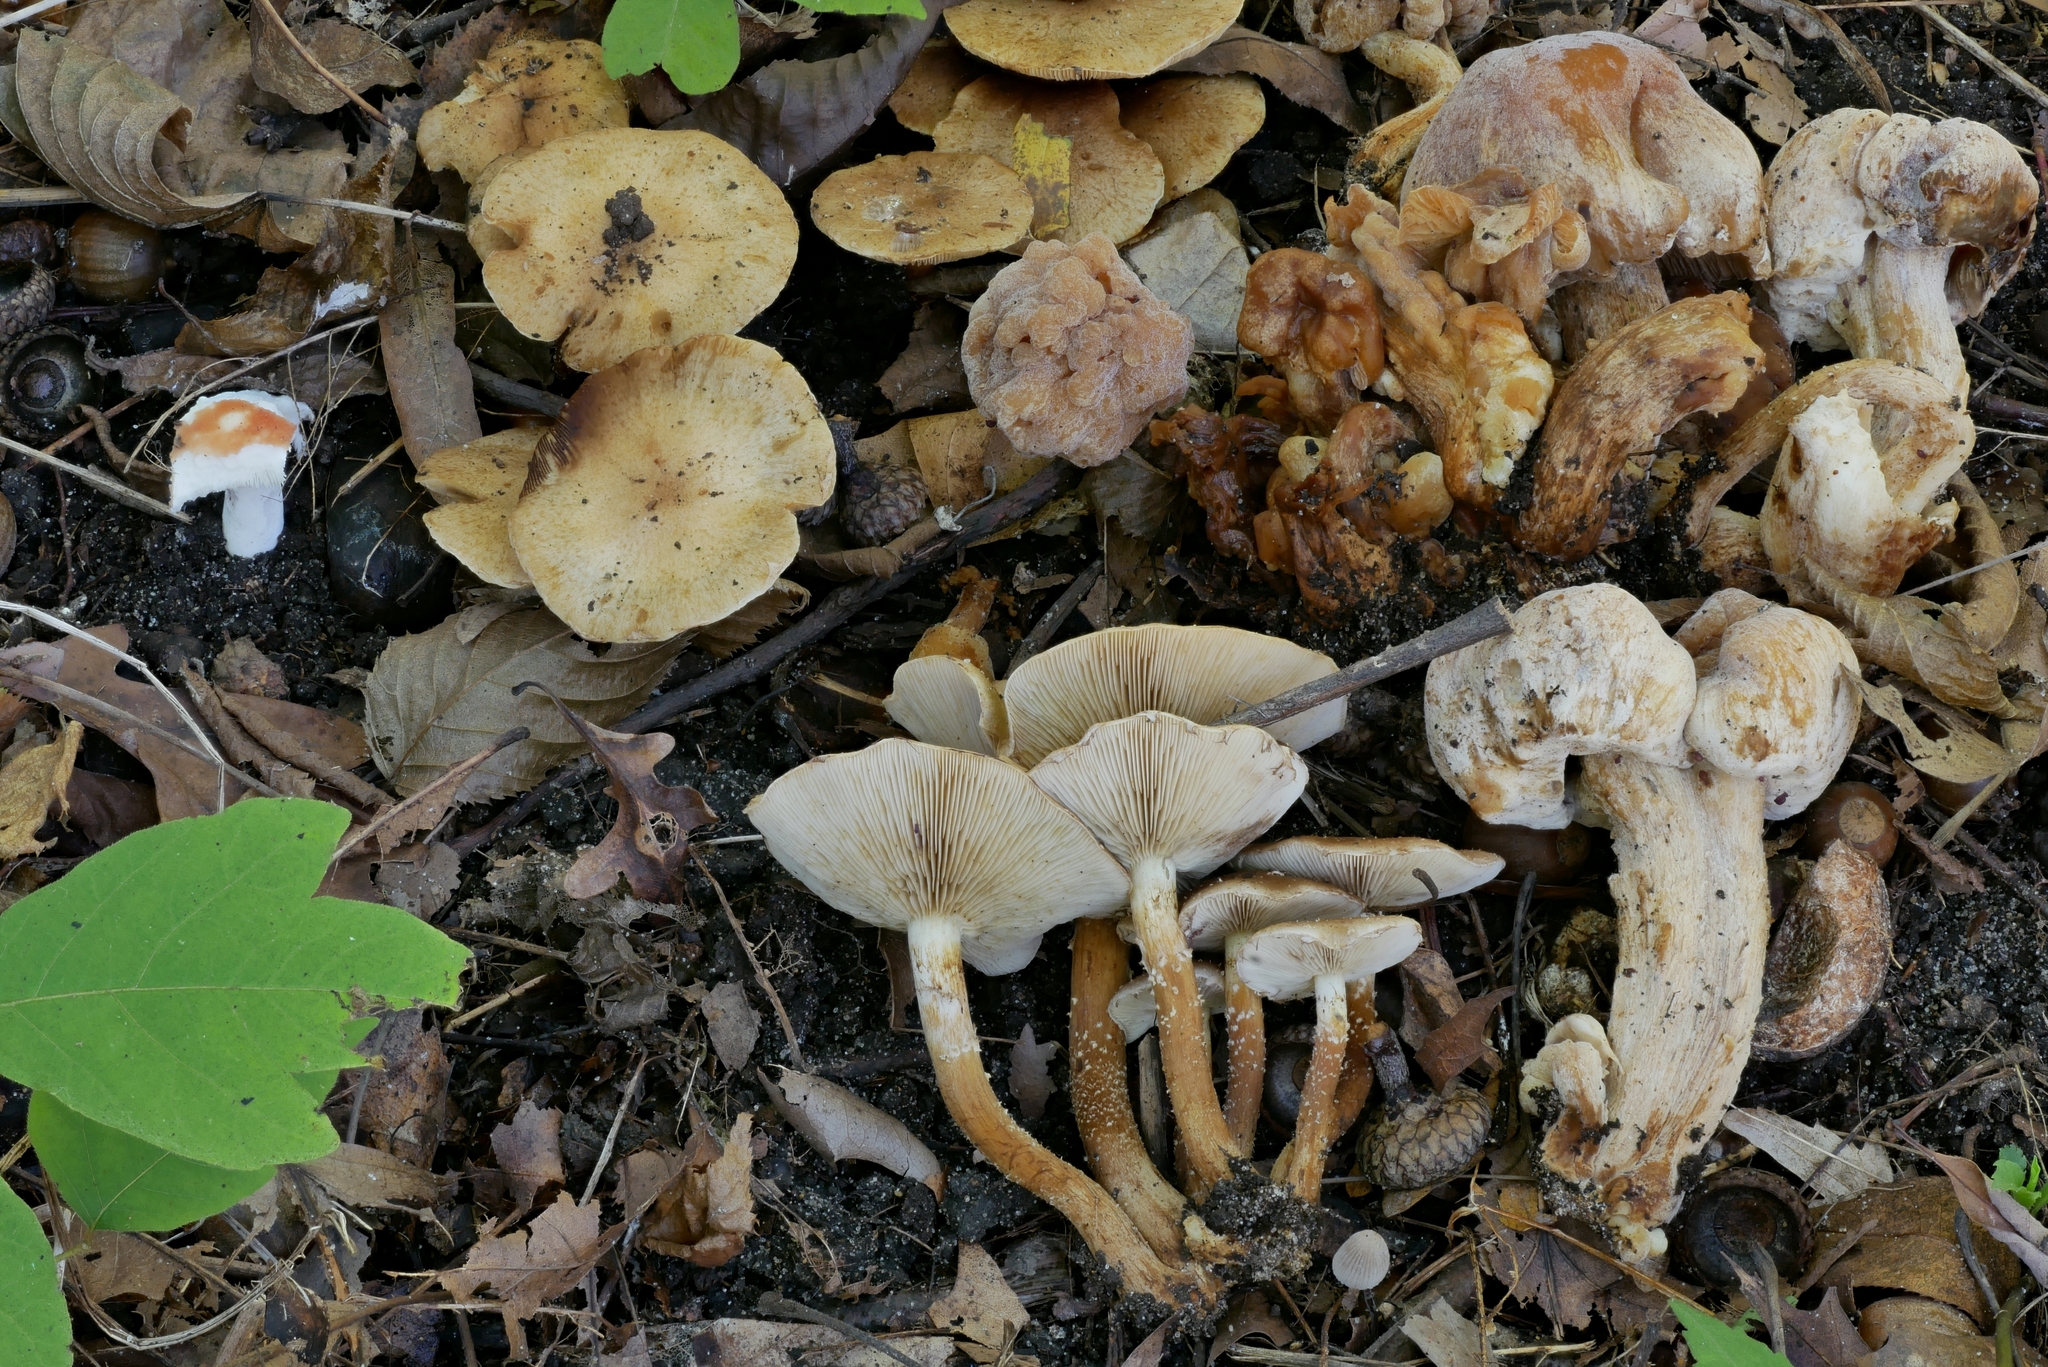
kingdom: Fungi
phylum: Basidiomycota
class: Agaricomycetes
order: Agaricales
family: Inocybaceae
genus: Inocybe
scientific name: Inocybe dulciolens
